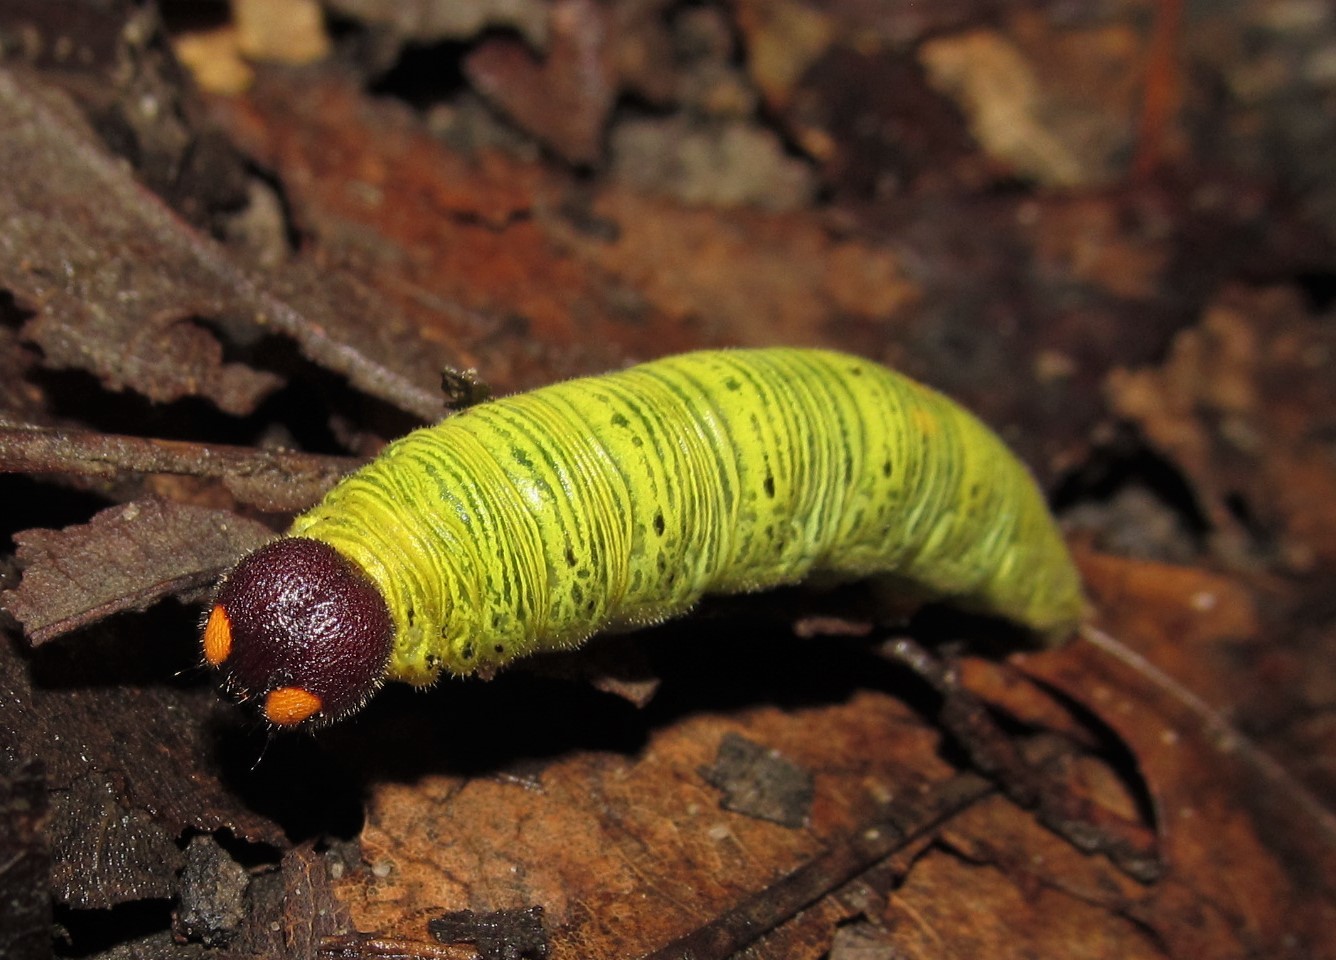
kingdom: Animalia
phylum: Arthropoda
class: Insecta
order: Lepidoptera
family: Hesperiidae
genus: Epargyreus
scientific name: Epargyreus clarus
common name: Silver-spotted skipper
